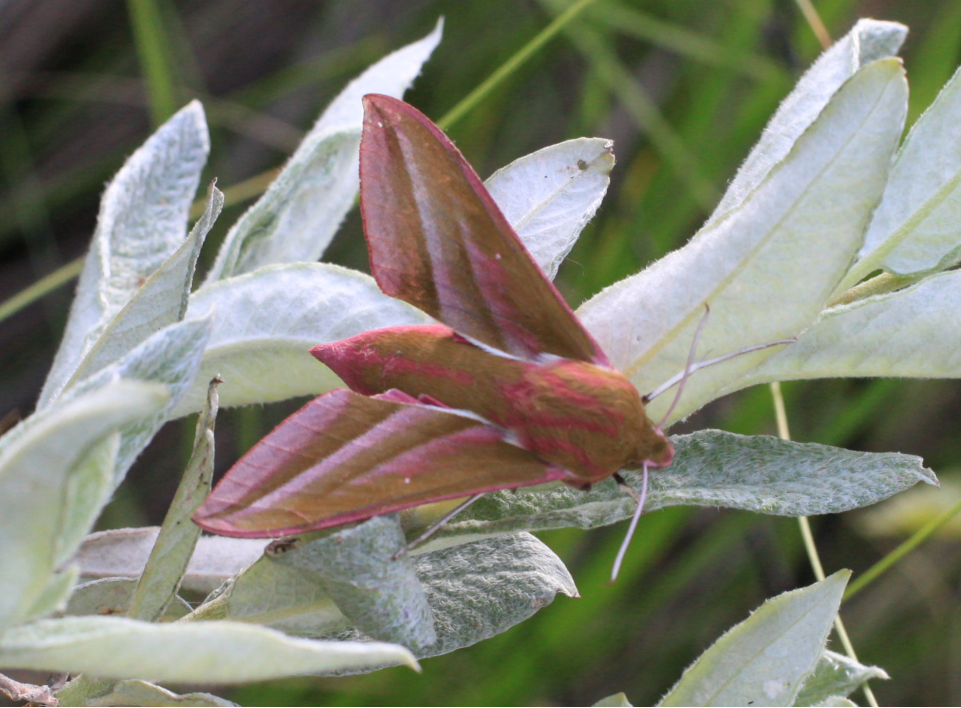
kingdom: Animalia
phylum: Arthropoda
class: Insecta
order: Lepidoptera
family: Sphingidae
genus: Deilephila
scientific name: Deilephila elpenor
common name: Elephant hawk-moth
